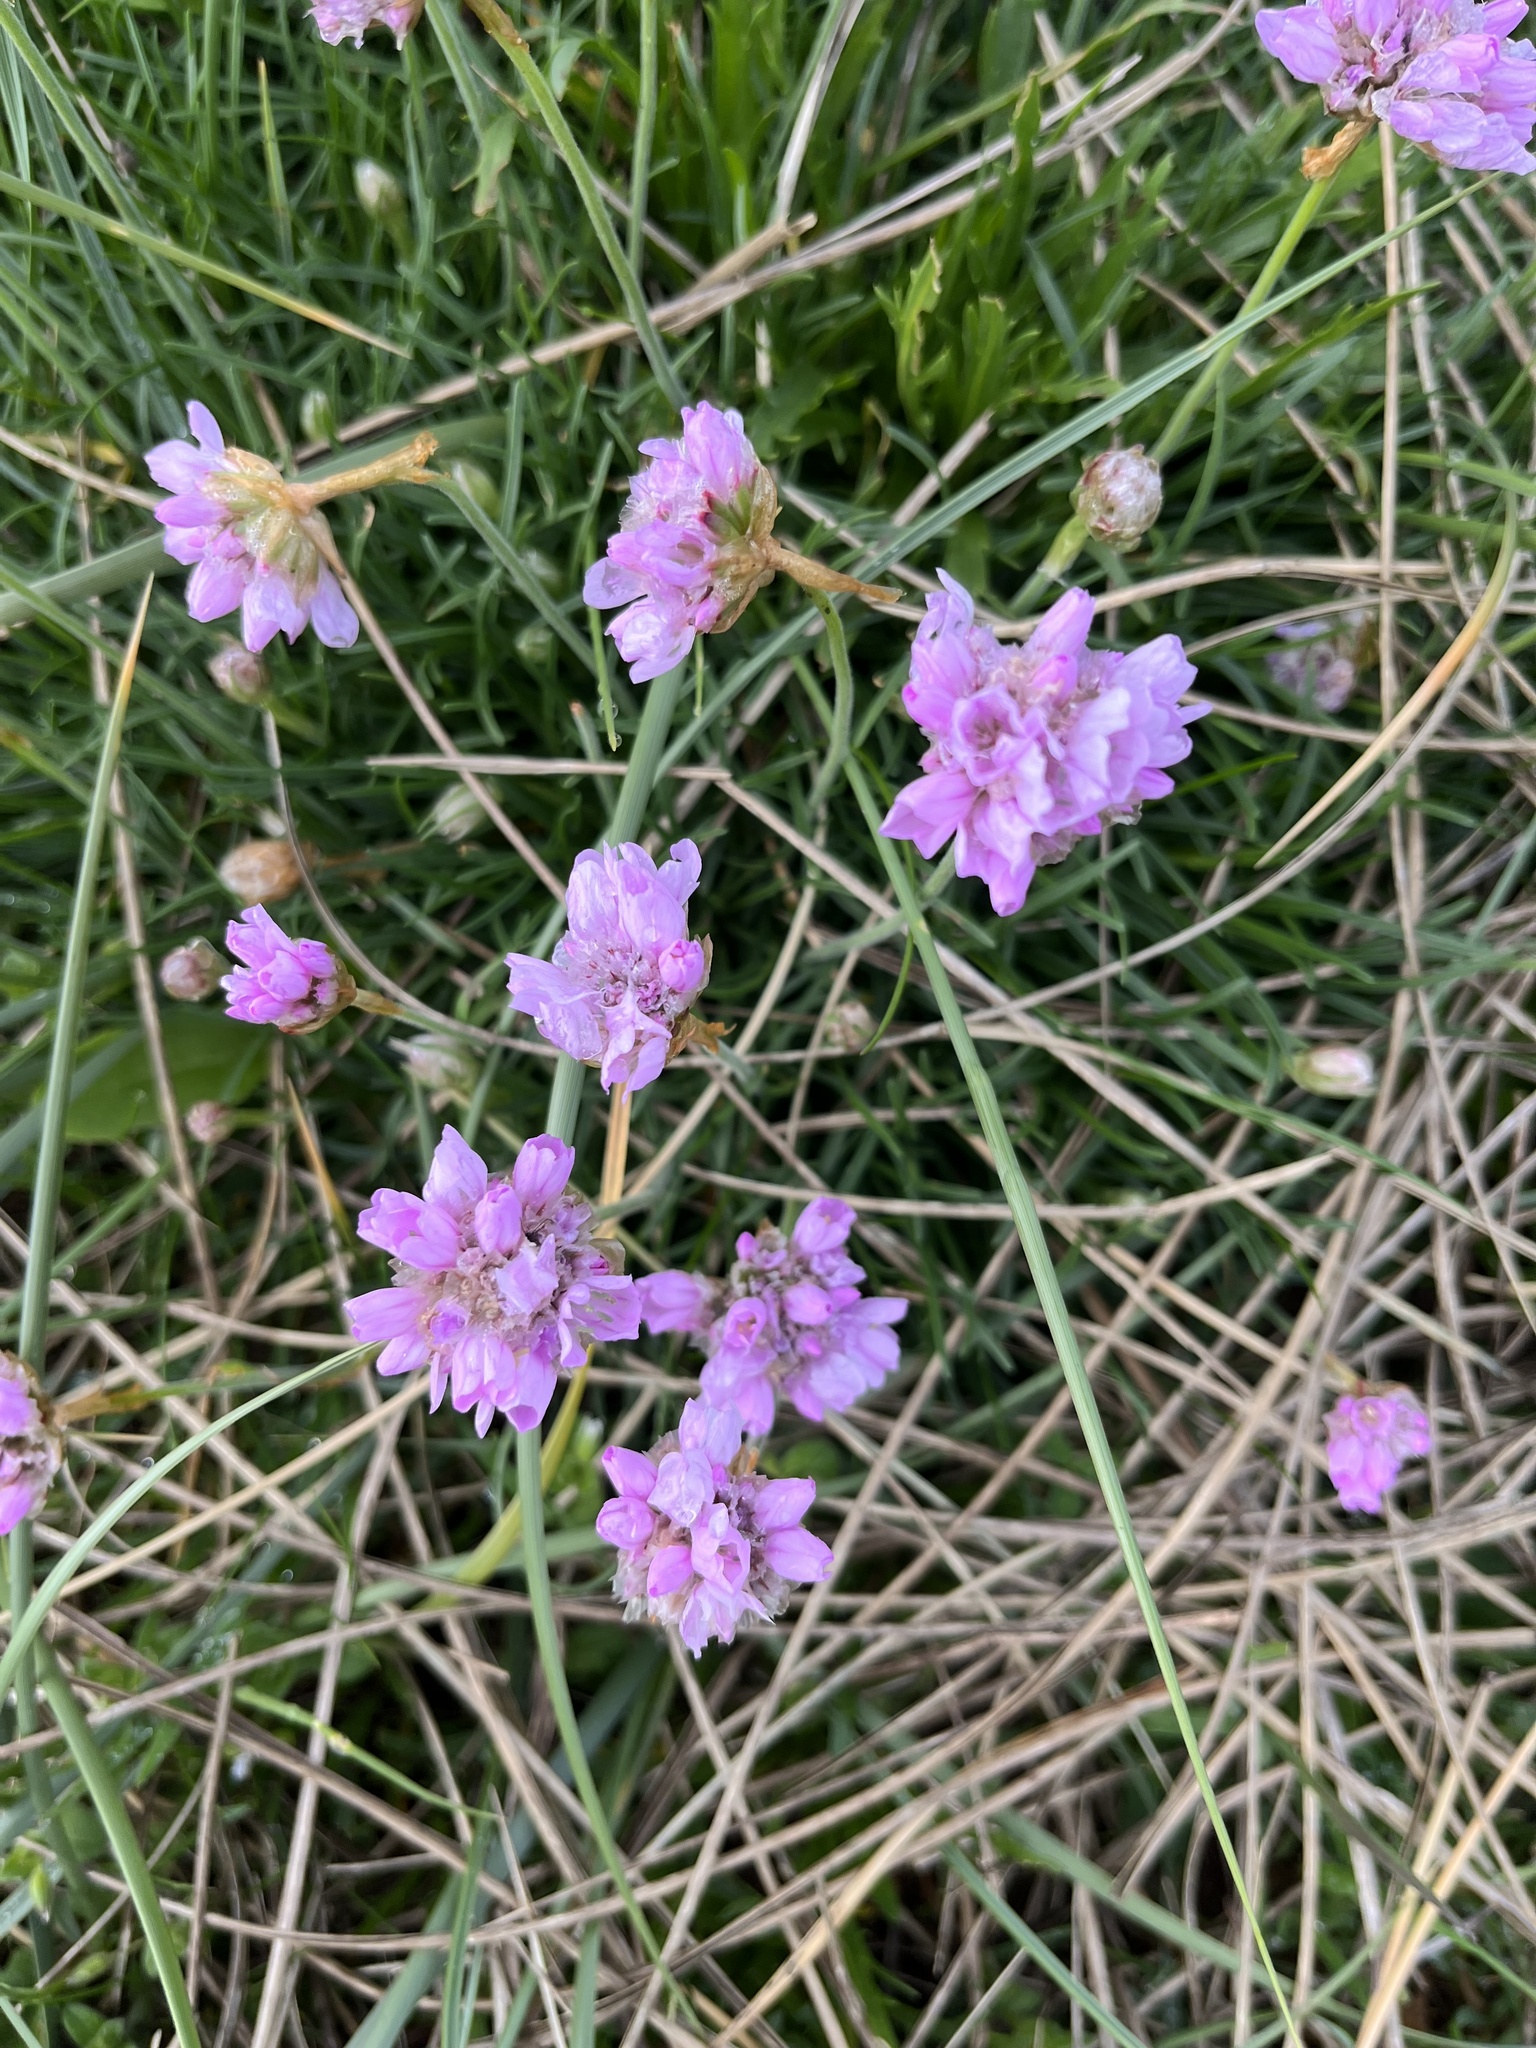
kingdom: Plantae
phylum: Tracheophyta
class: Magnoliopsida
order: Caryophyllales
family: Plumbaginaceae
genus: Armeria
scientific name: Armeria maritima
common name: Thrift
